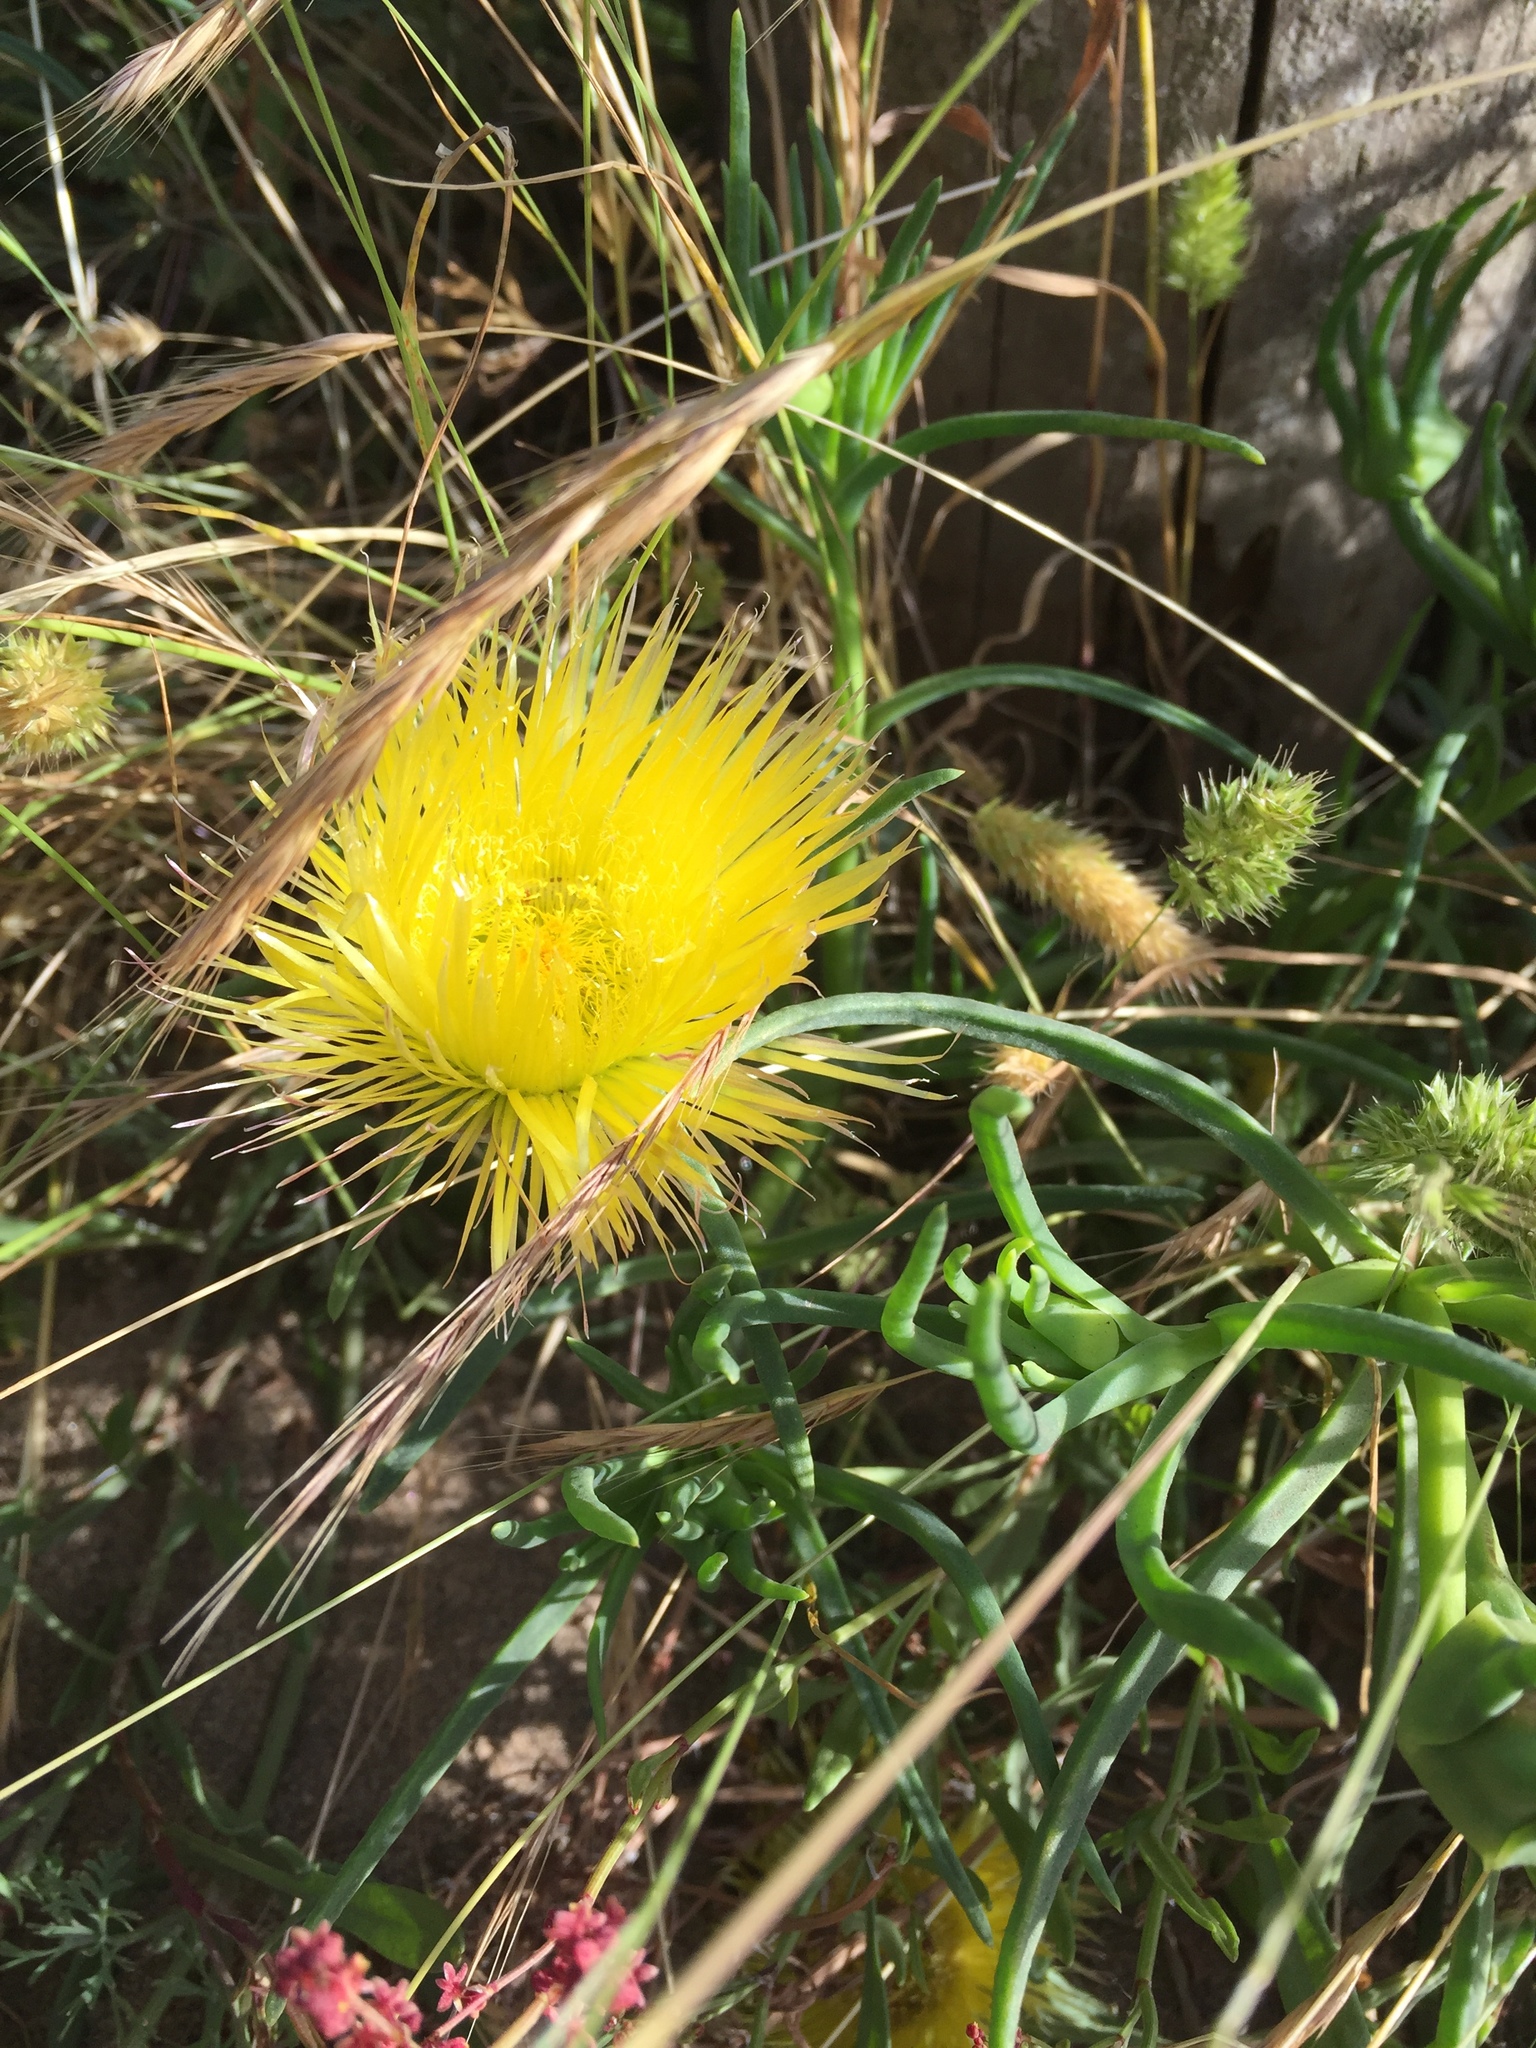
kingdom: Plantae
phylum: Tracheophyta
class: Magnoliopsida
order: Caryophyllales
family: Aizoaceae
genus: Conicosia
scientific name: Conicosia pugioniformis
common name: Narrow-leaved iceplant
